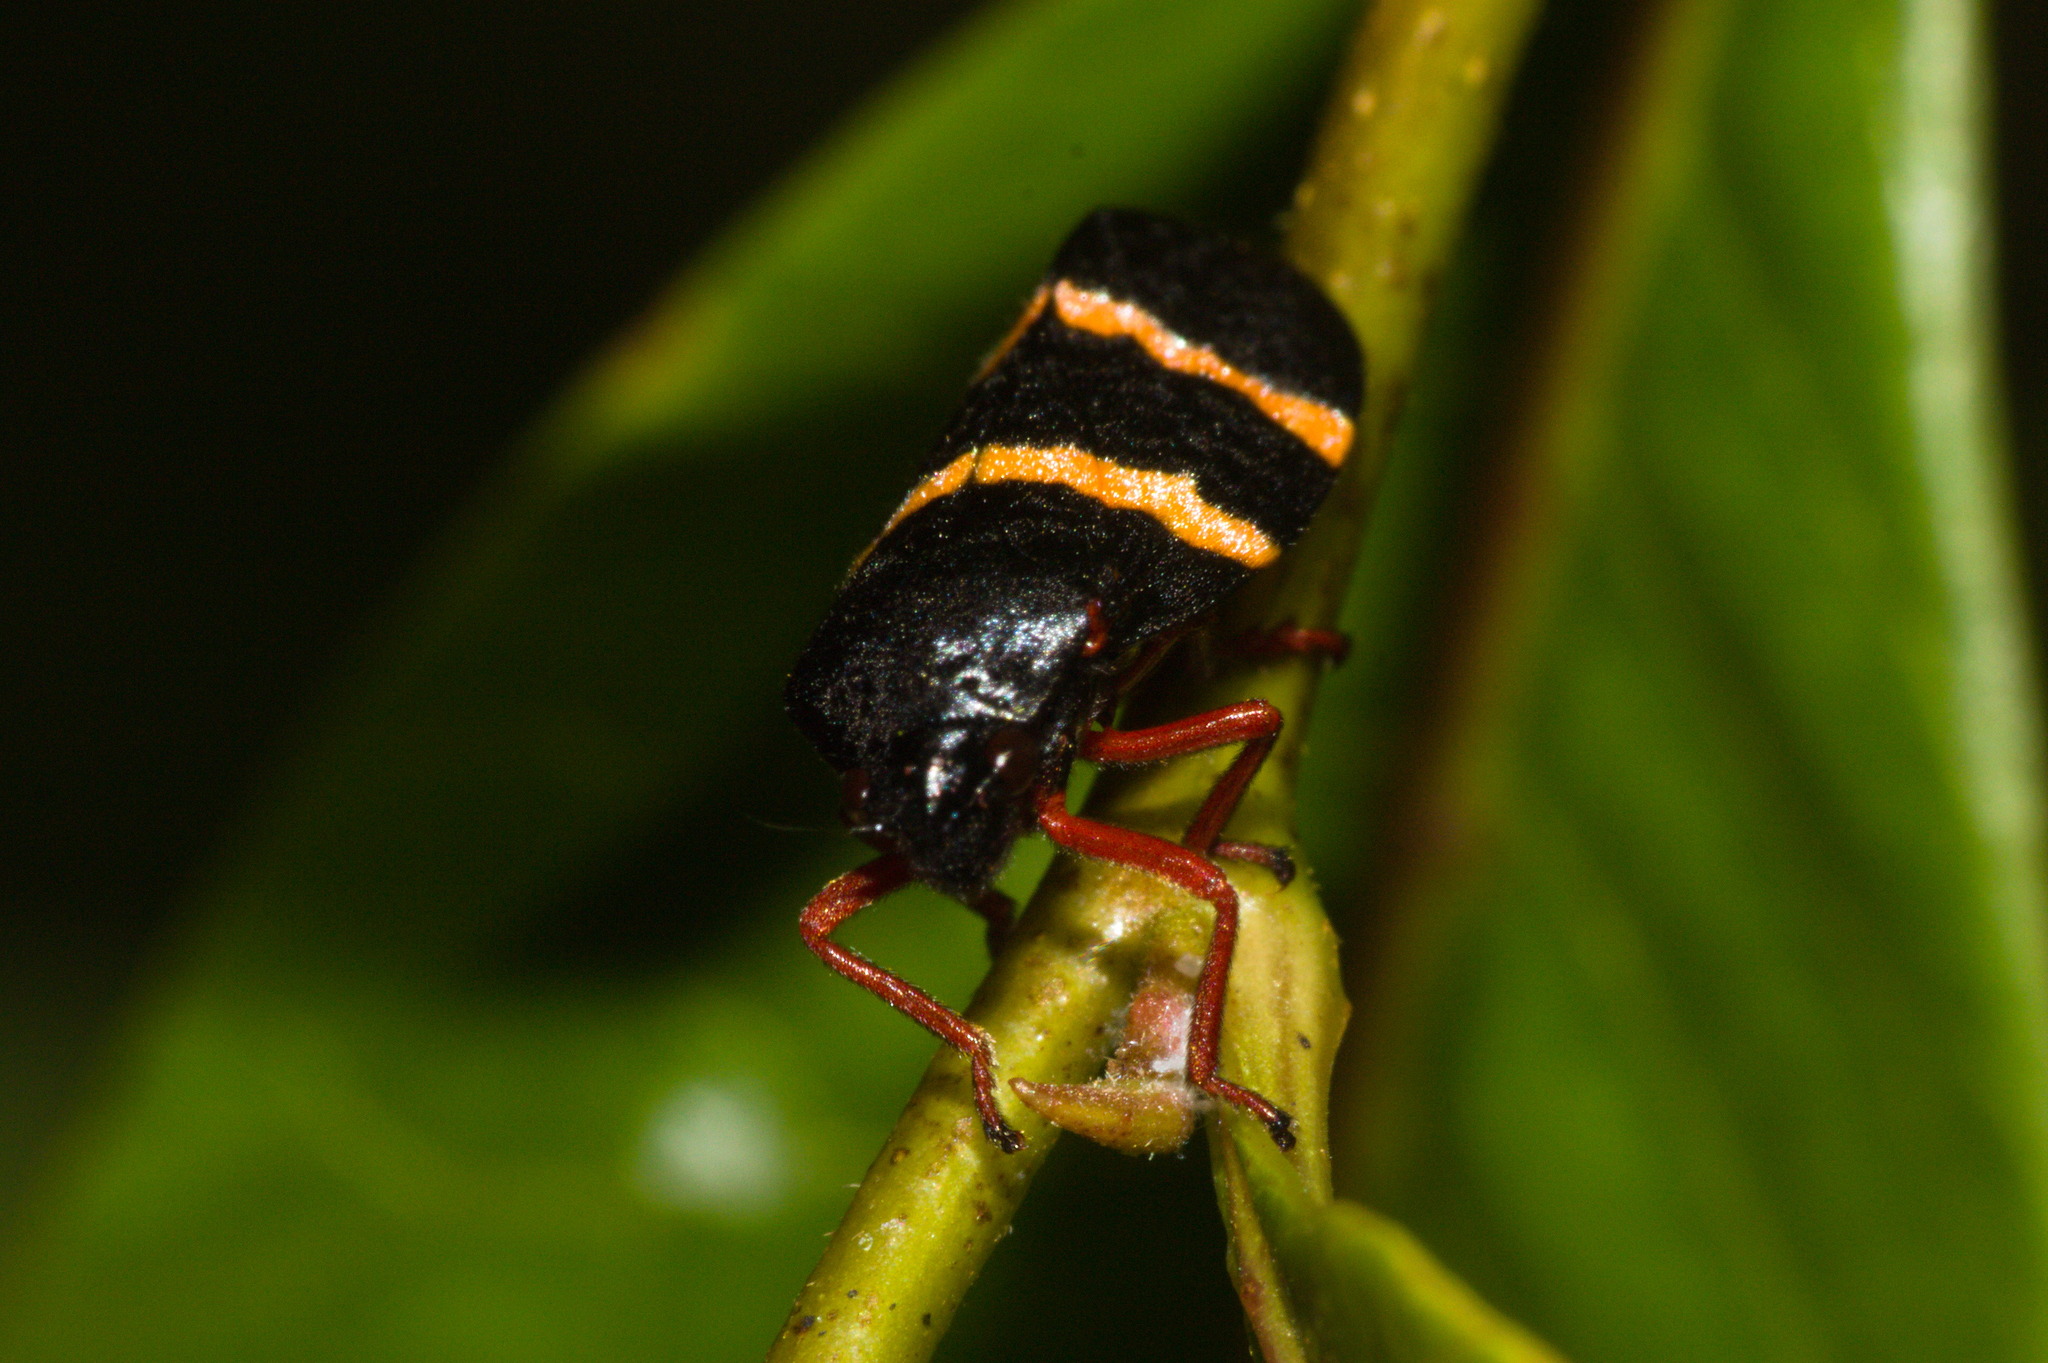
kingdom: Animalia
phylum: Arthropoda
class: Insecta
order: Hemiptera
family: Cercopidae
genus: Mahanarva
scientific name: Mahanarva integra
